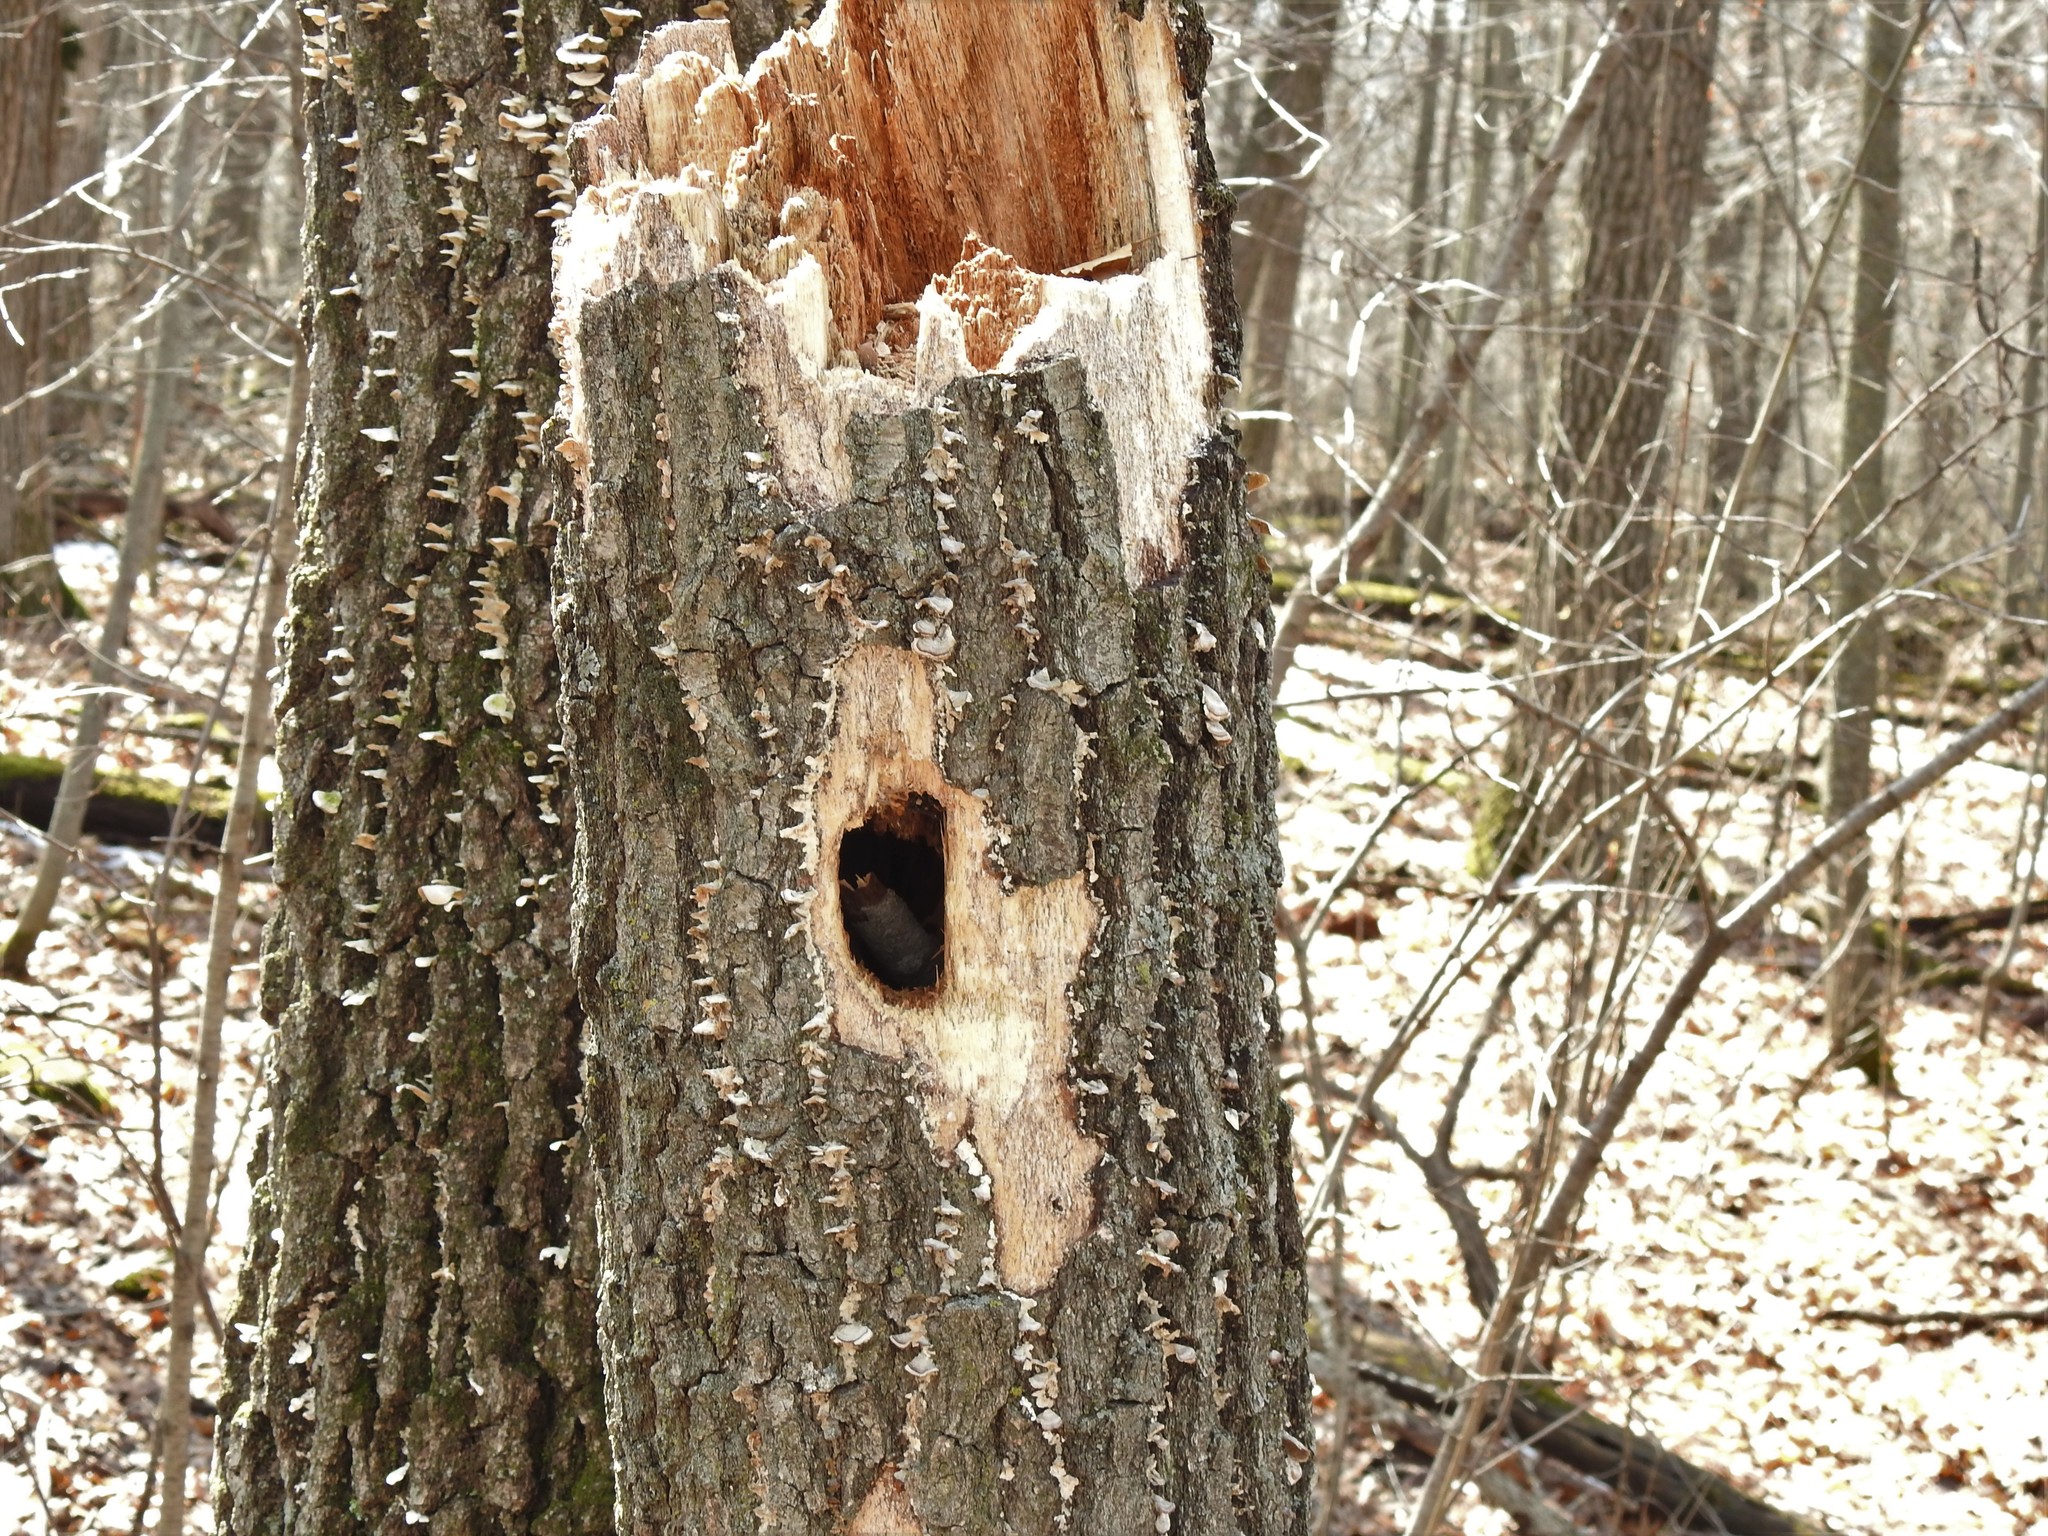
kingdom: Animalia
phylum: Chordata
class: Aves
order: Piciformes
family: Picidae
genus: Dryocopus
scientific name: Dryocopus pileatus
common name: Pileated woodpecker
